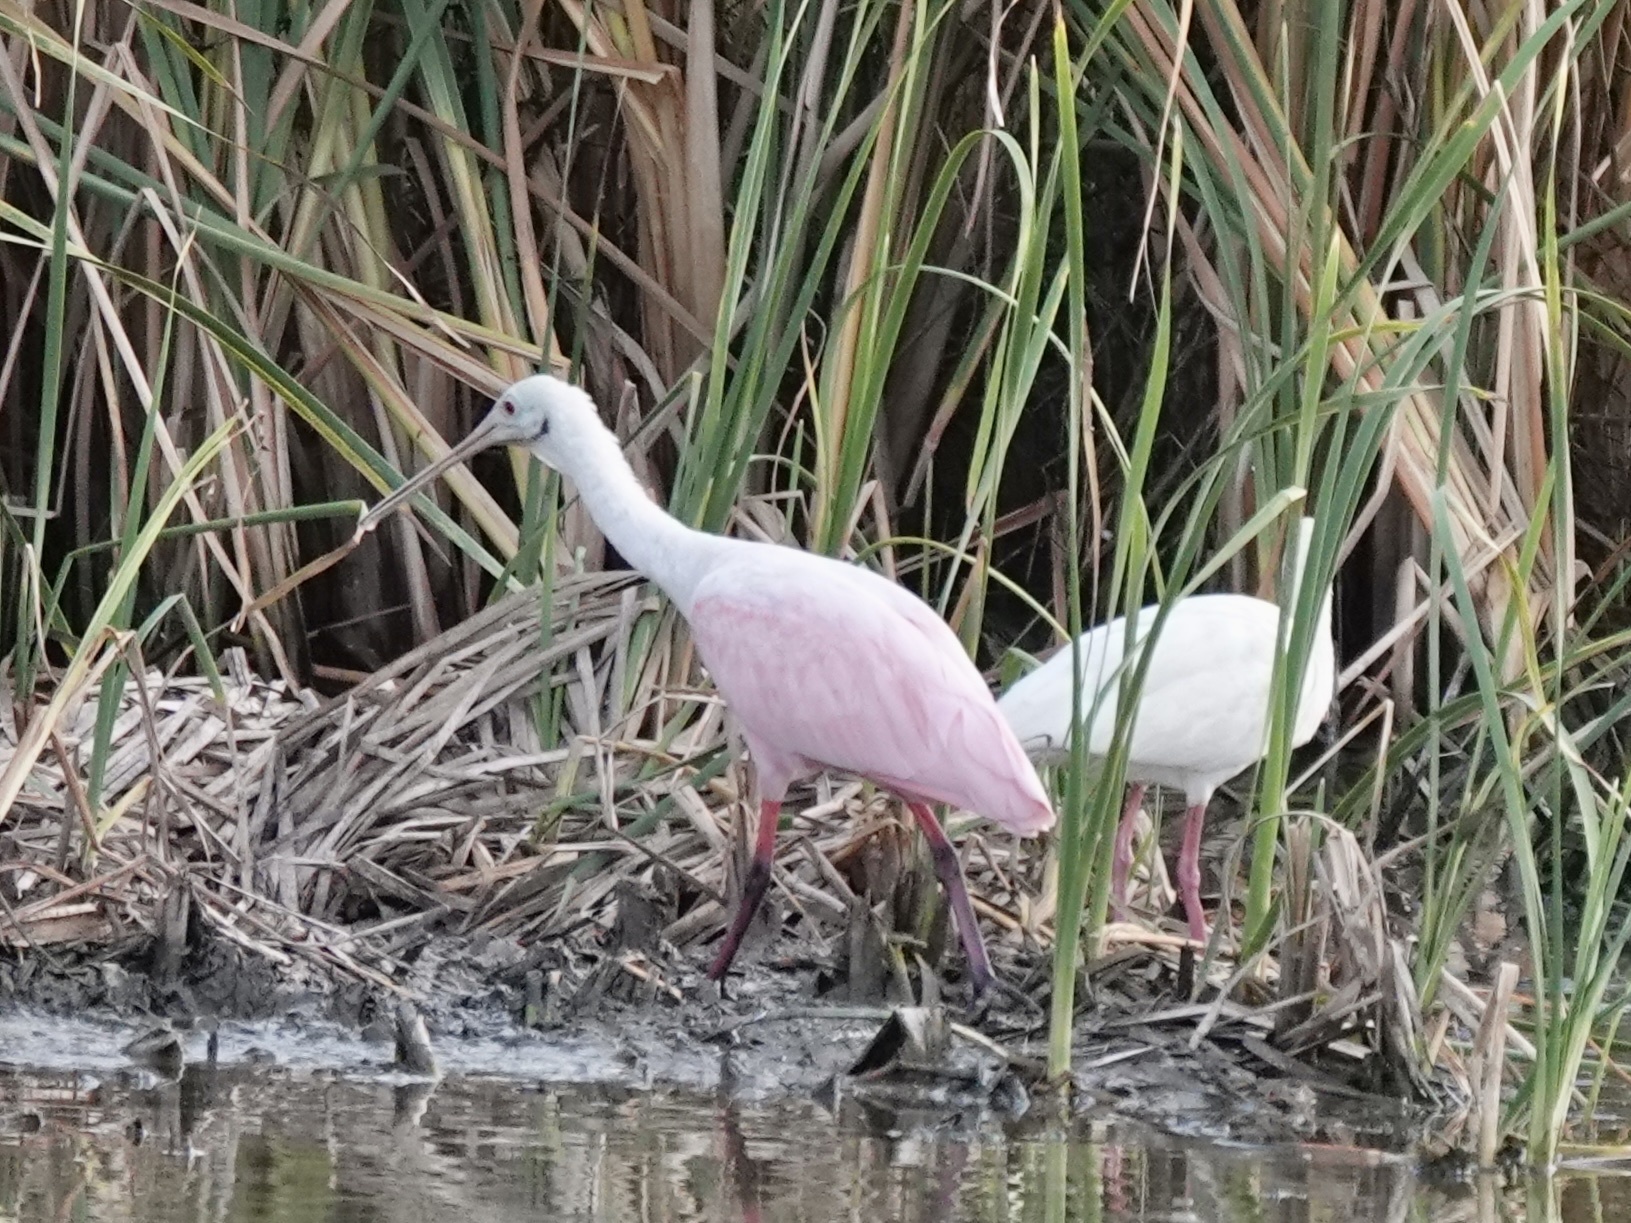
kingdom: Animalia
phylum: Chordata
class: Aves
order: Pelecaniformes
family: Threskiornithidae
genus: Platalea
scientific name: Platalea ajaja
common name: Roseate spoonbill
